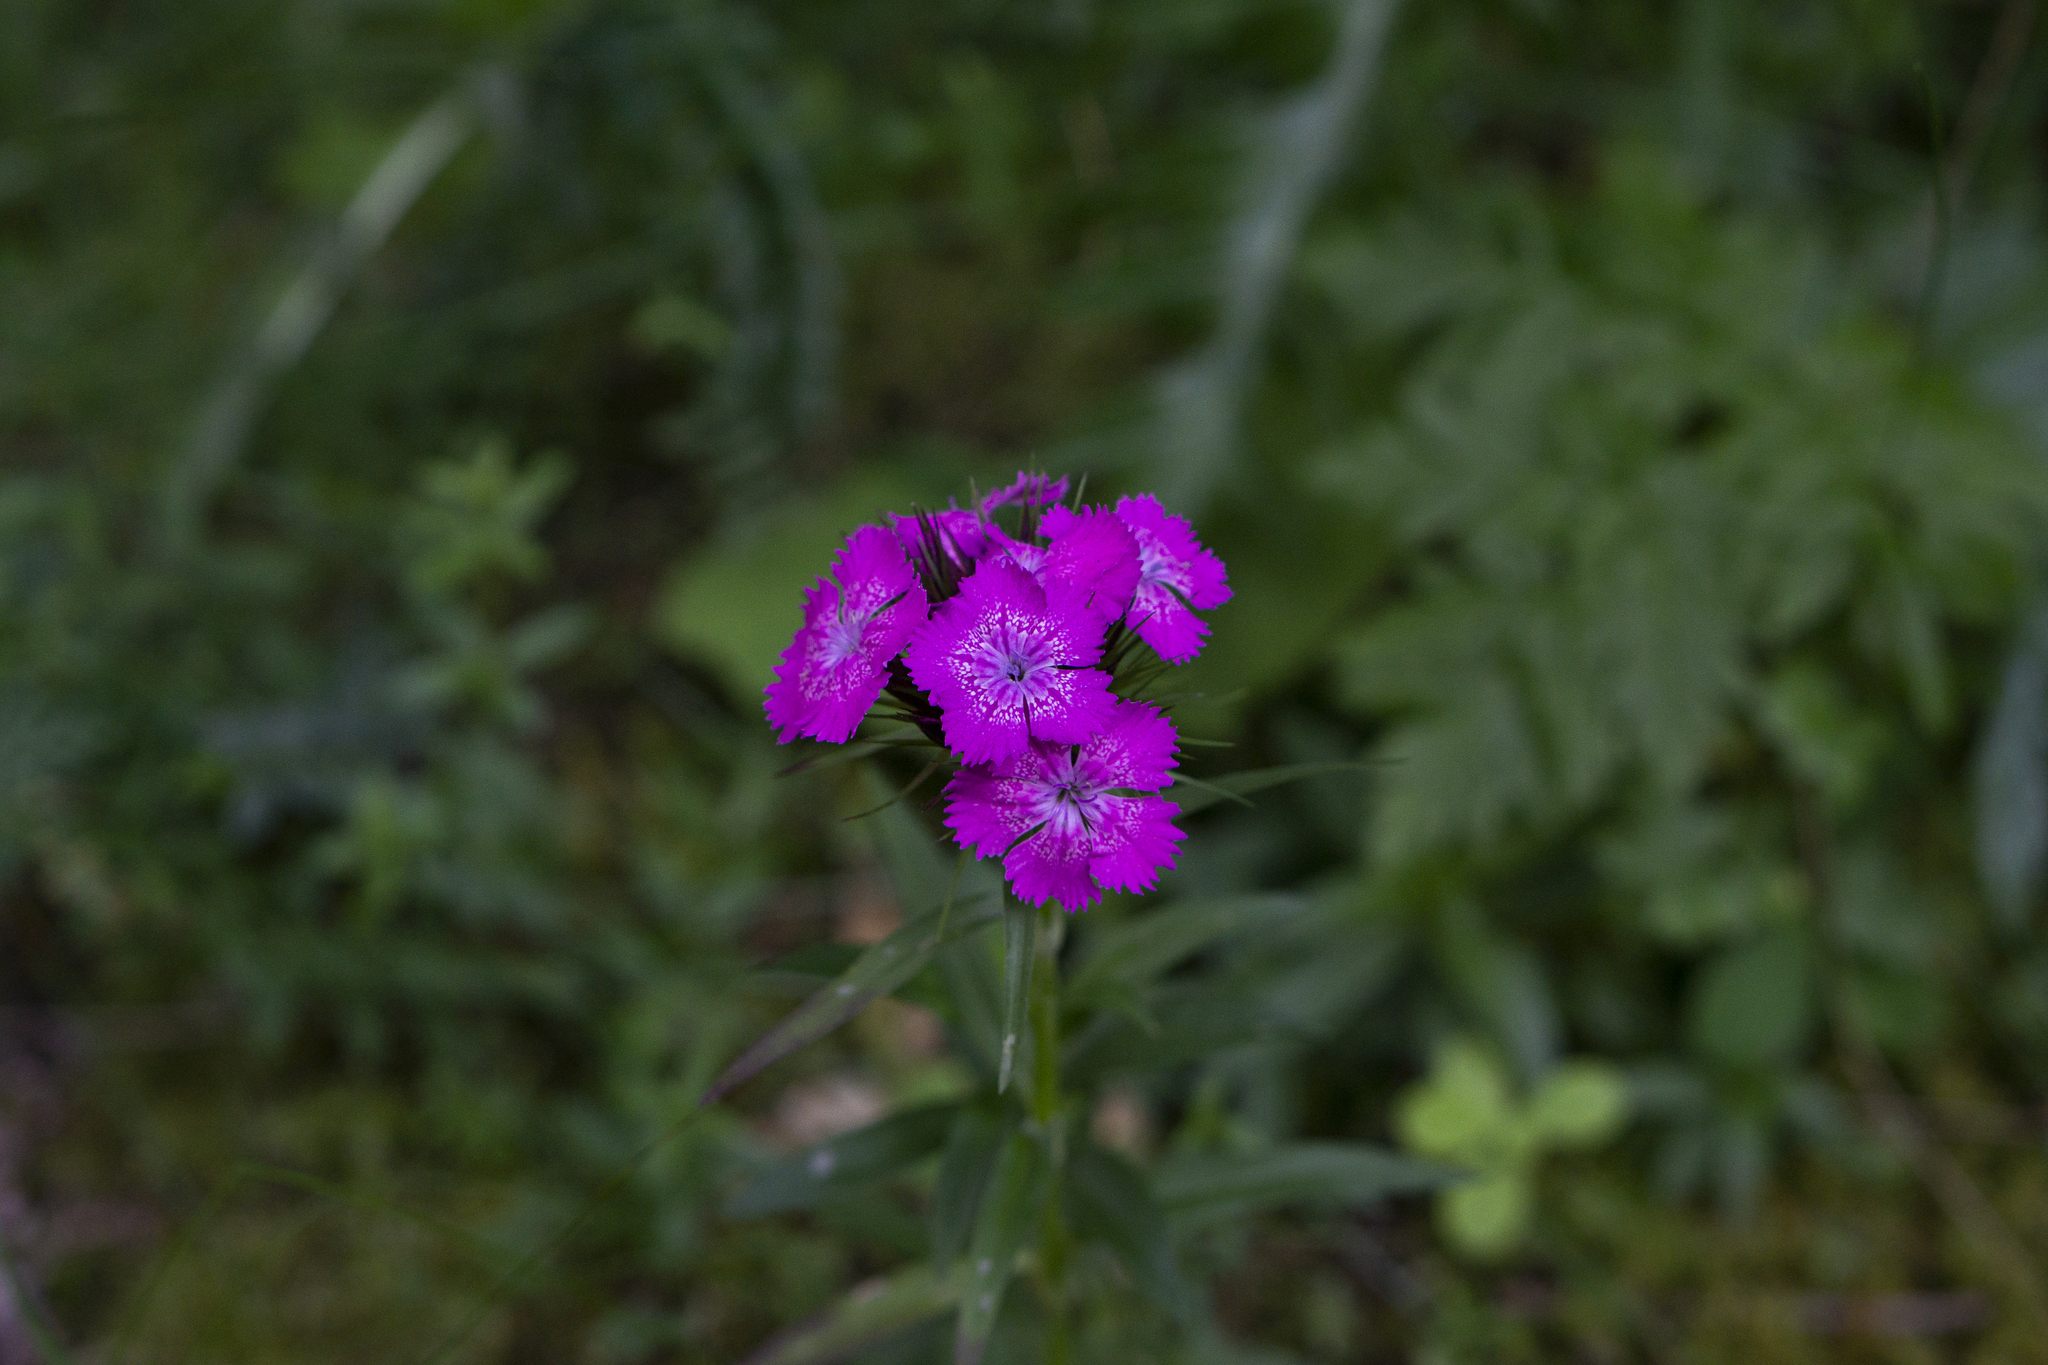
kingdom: Plantae
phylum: Tracheophyta
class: Magnoliopsida
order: Caryophyllales
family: Caryophyllaceae
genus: Dianthus
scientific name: Dianthus carthusianorum
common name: Carthusian pink
